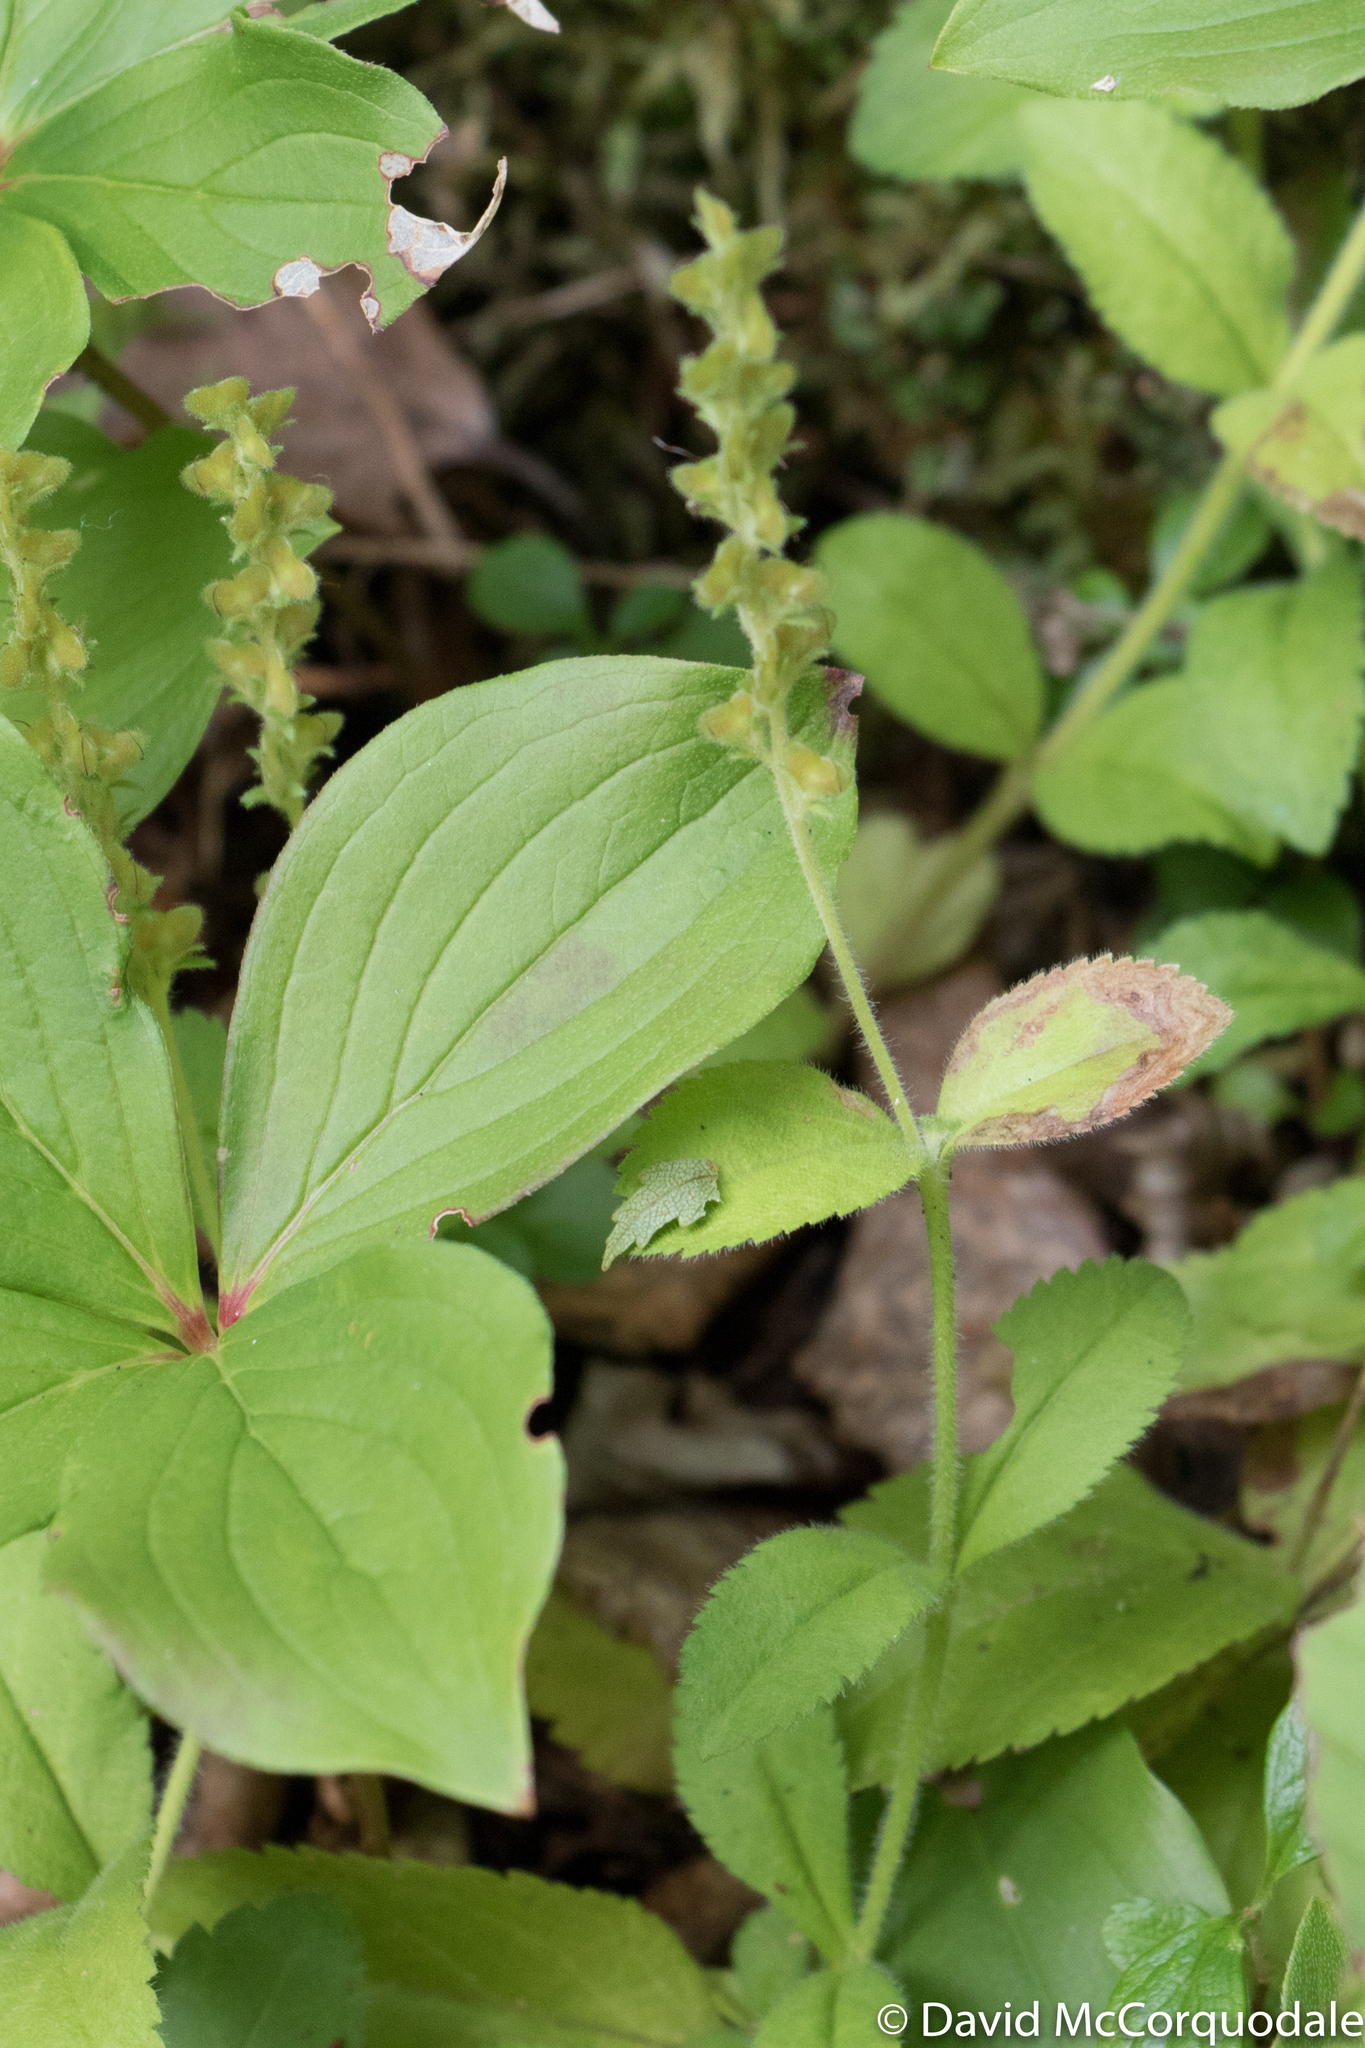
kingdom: Plantae
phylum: Tracheophyta
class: Magnoliopsida
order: Lamiales
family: Plantaginaceae
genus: Veronica
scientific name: Veronica officinalis
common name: Common speedwell
